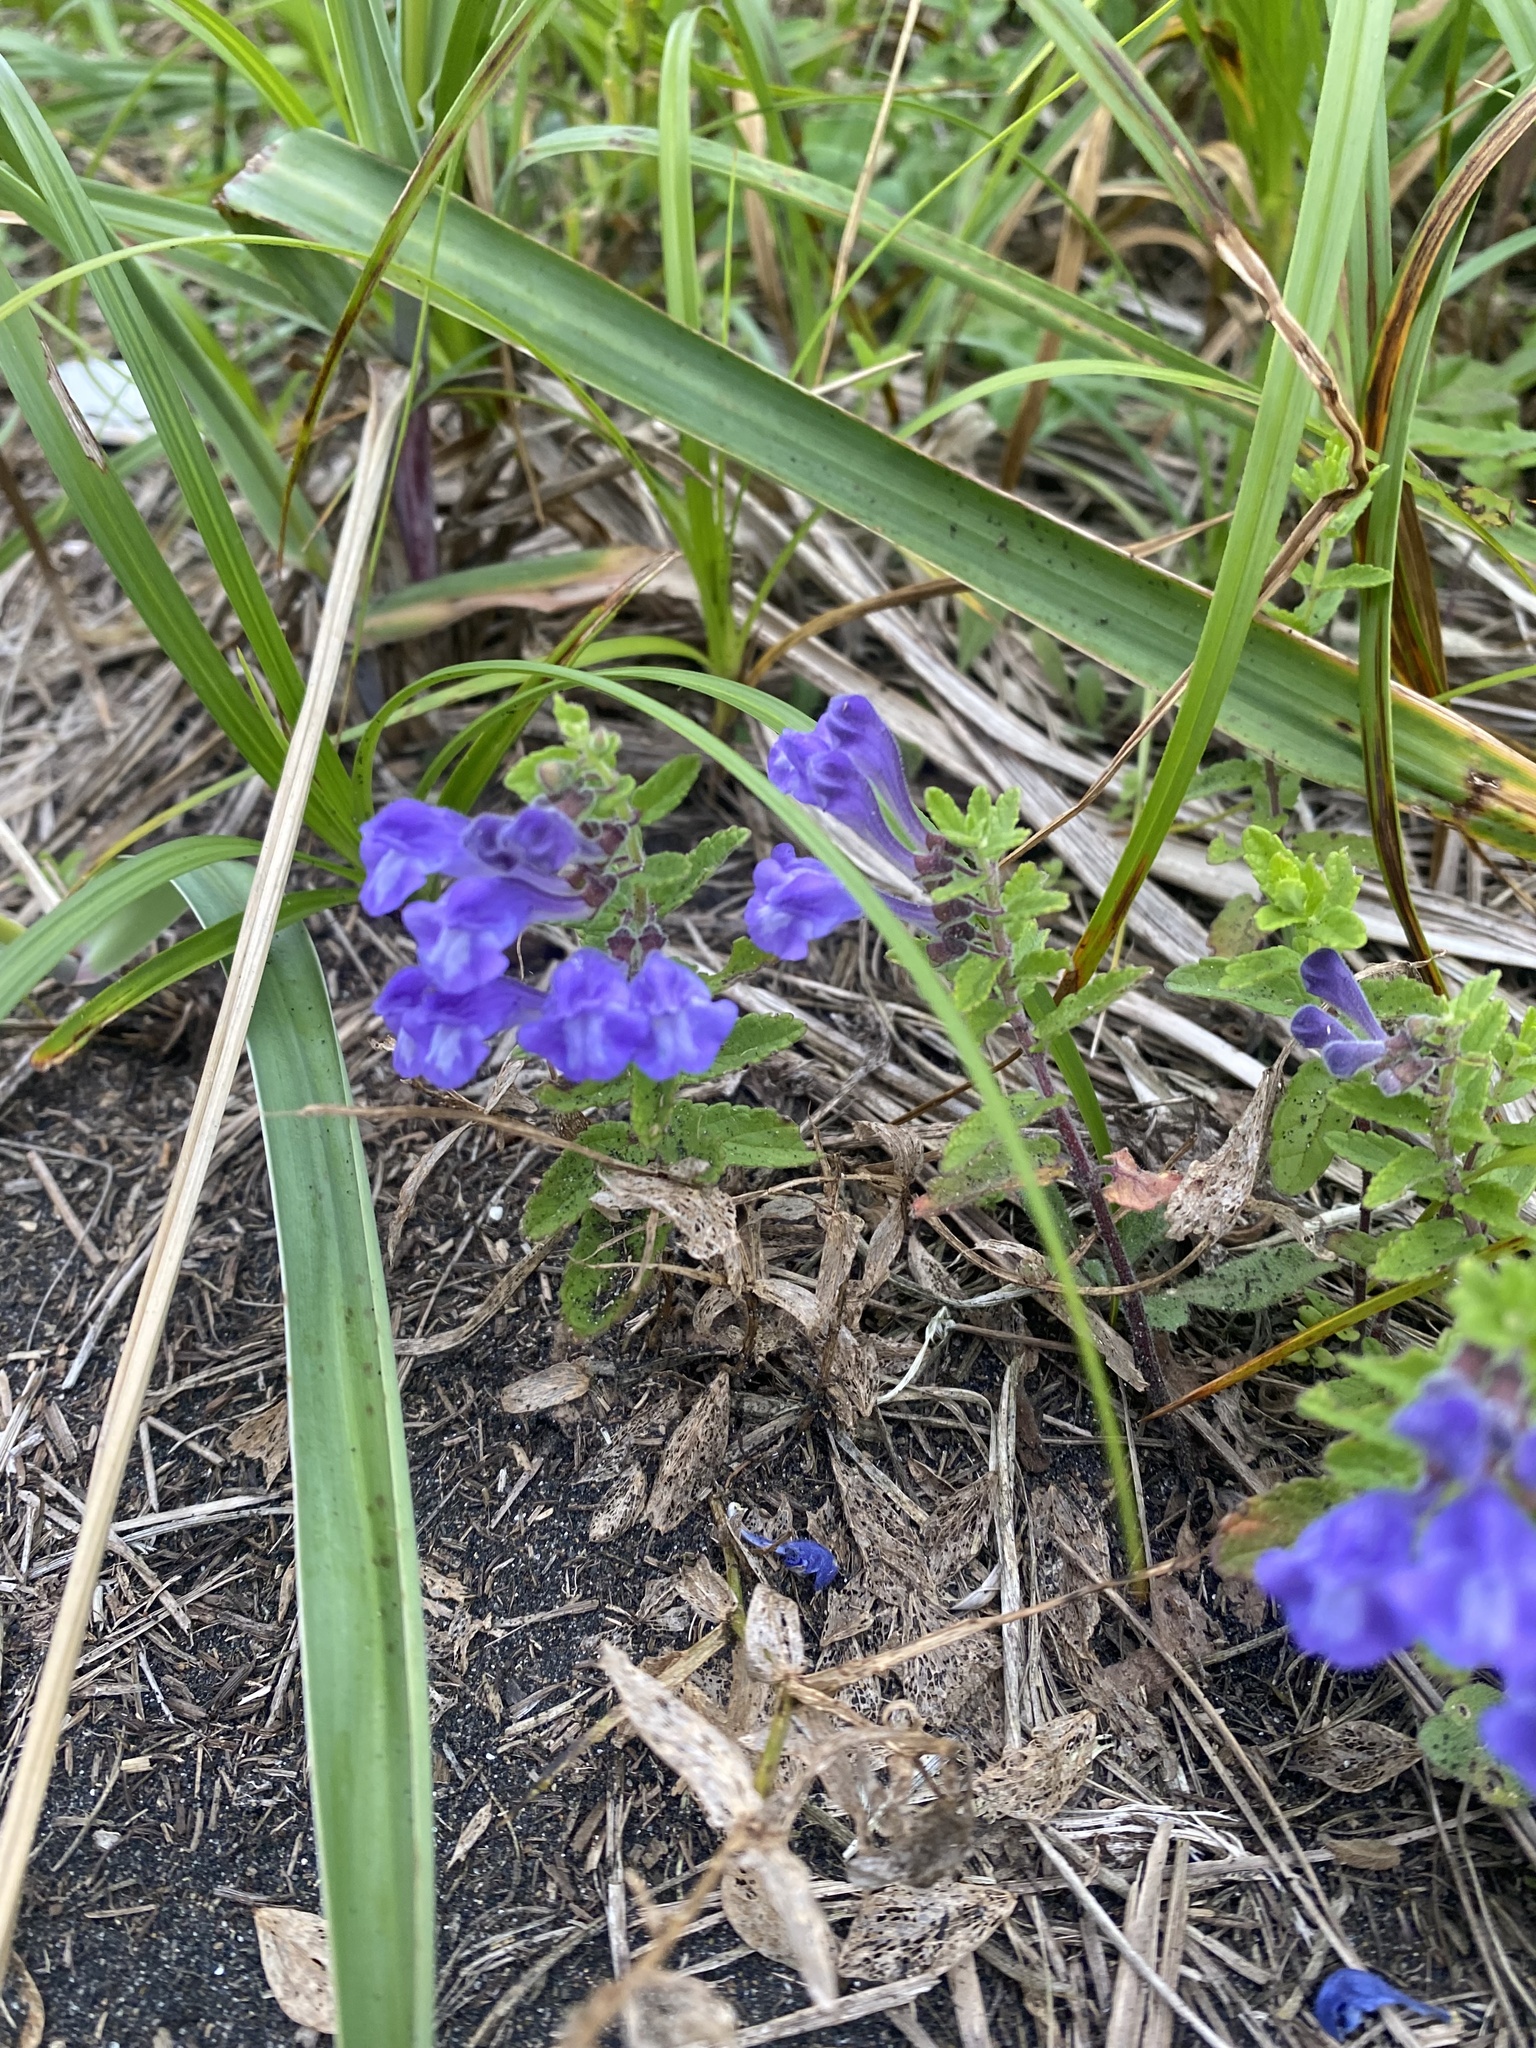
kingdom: Plantae
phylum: Tracheophyta
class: Magnoliopsida
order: Lamiales
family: Lamiaceae
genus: Scutellaria
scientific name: Scutellaria strigillosa
